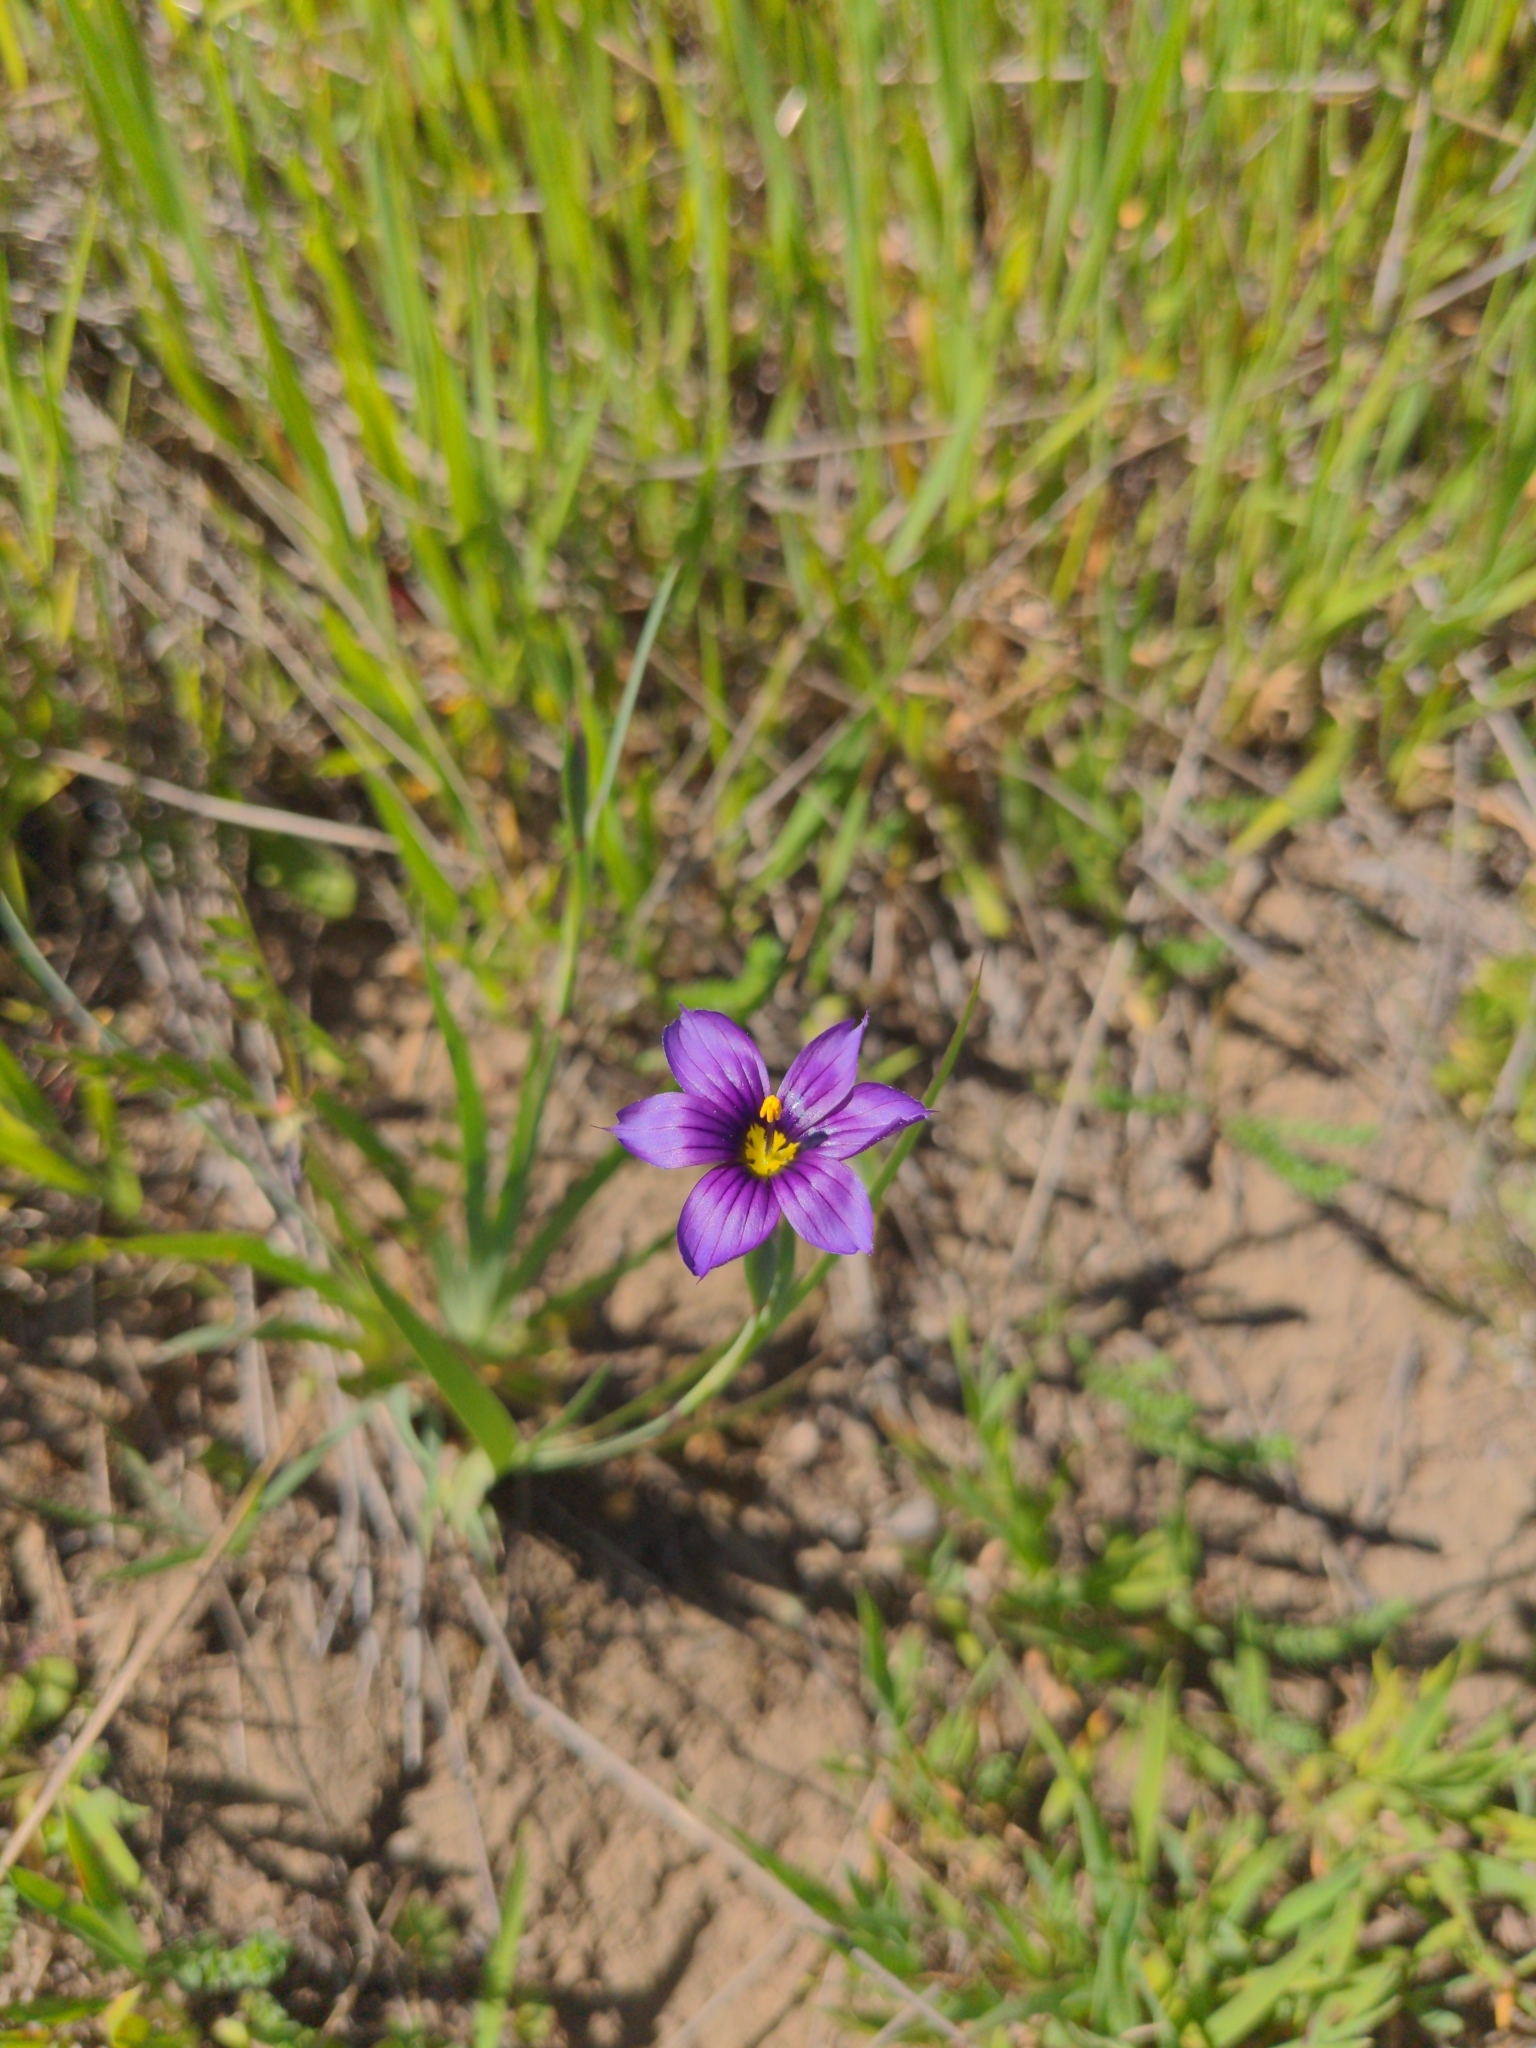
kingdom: Plantae
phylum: Tracheophyta
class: Liliopsida
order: Asparagales
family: Iridaceae
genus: Sisyrinchium
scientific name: Sisyrinchium bellum
